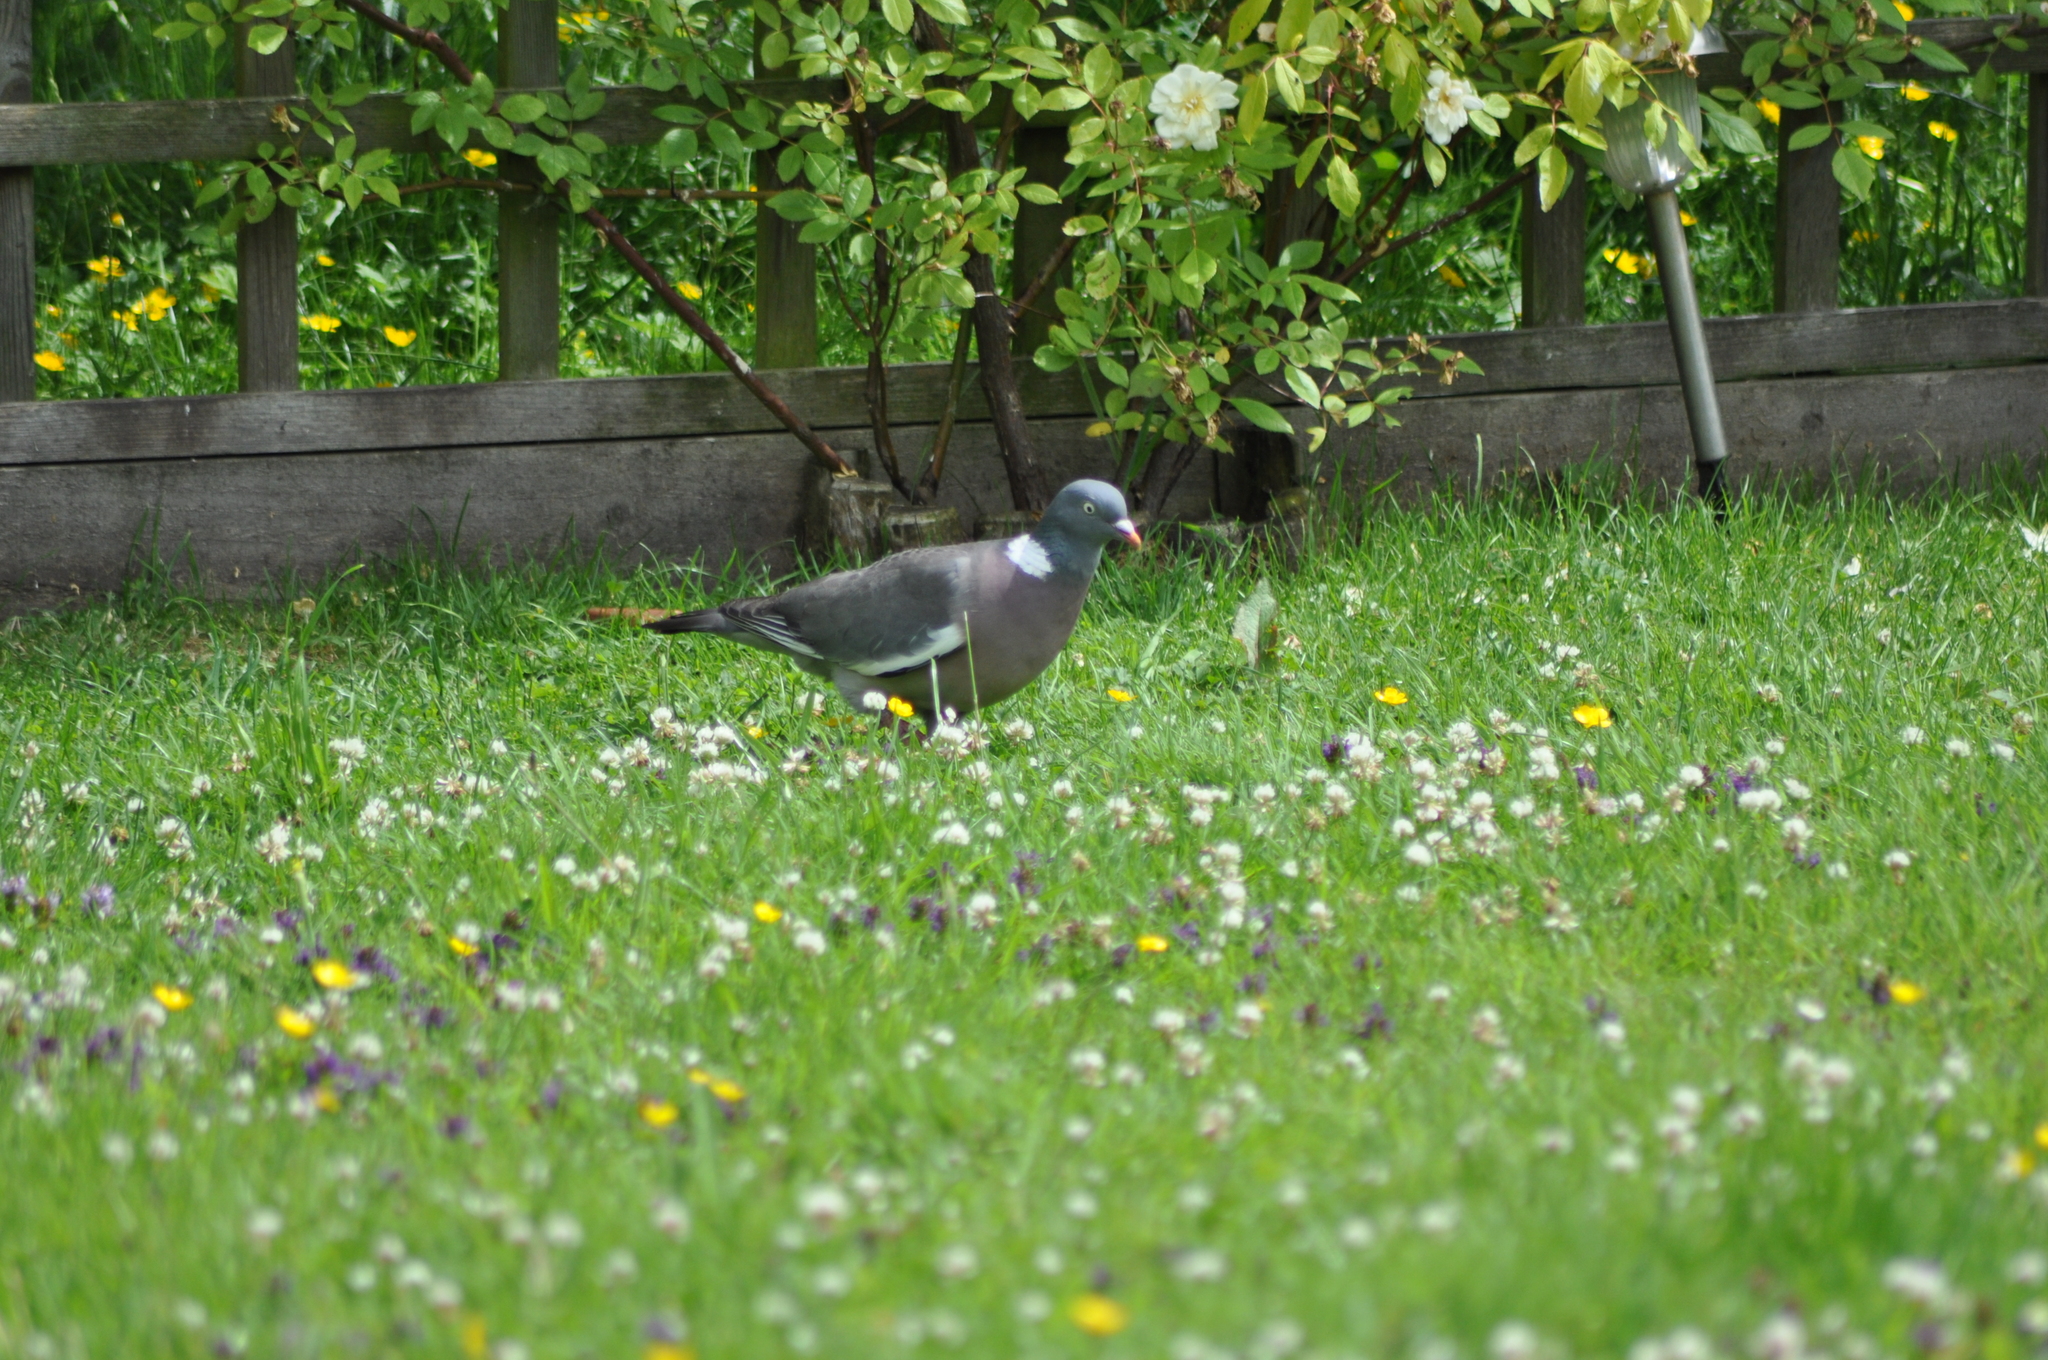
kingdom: Animalia
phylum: Chordata
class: Aves
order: Columbiformes
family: Columbidae
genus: Columba
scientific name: Columba palumbus
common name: Common wood pigeon
